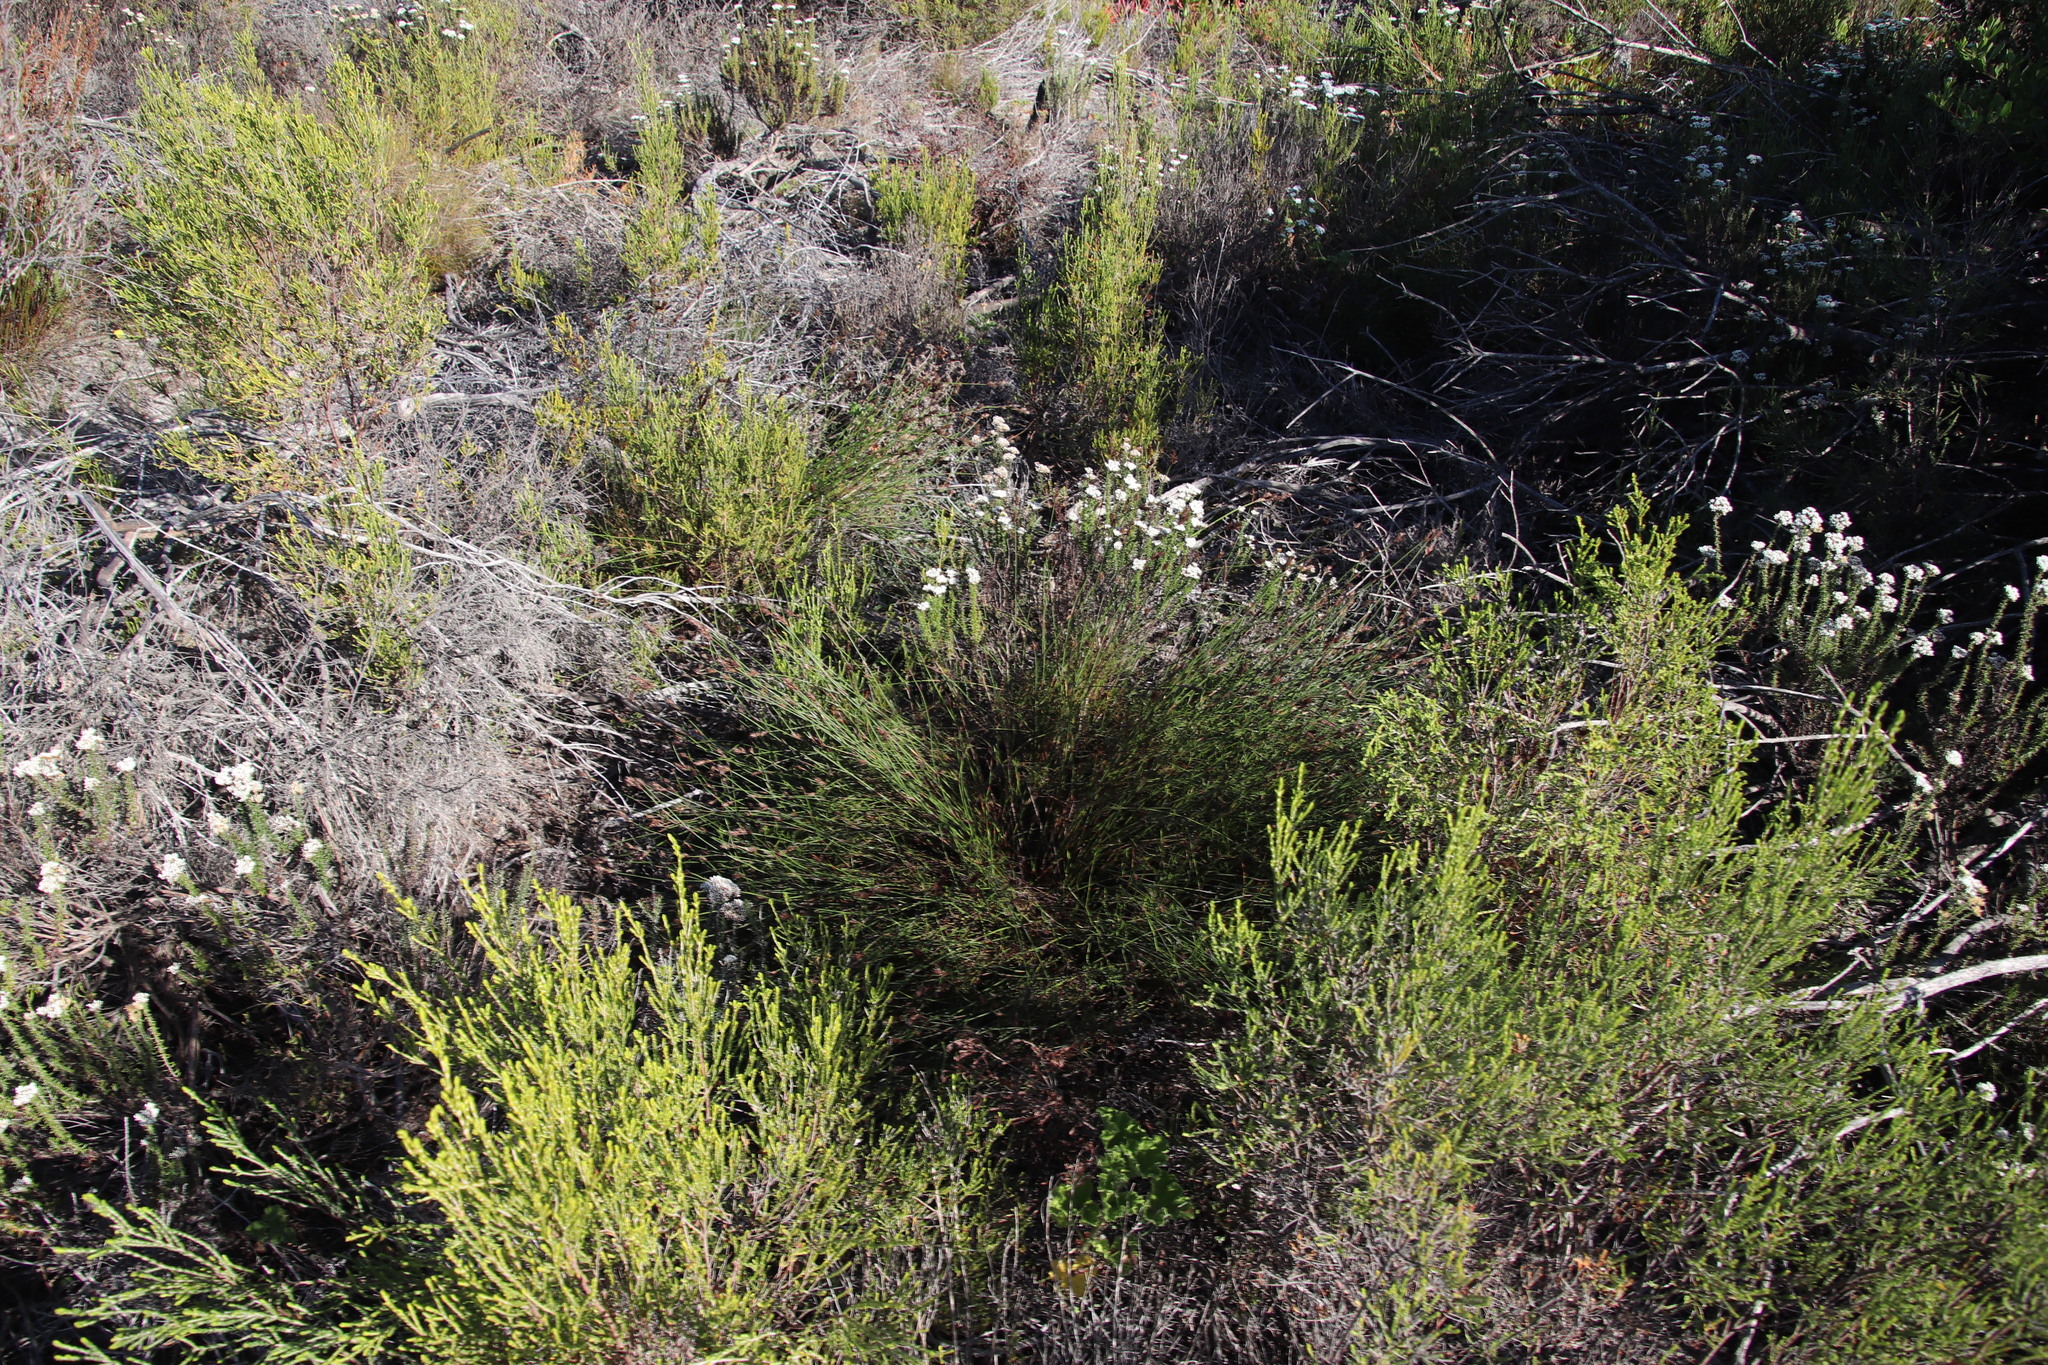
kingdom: Plantae
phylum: Tracheophyta
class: Liliopsida
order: Poales
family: Restionaceae
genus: Restio
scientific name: Restio capensis
